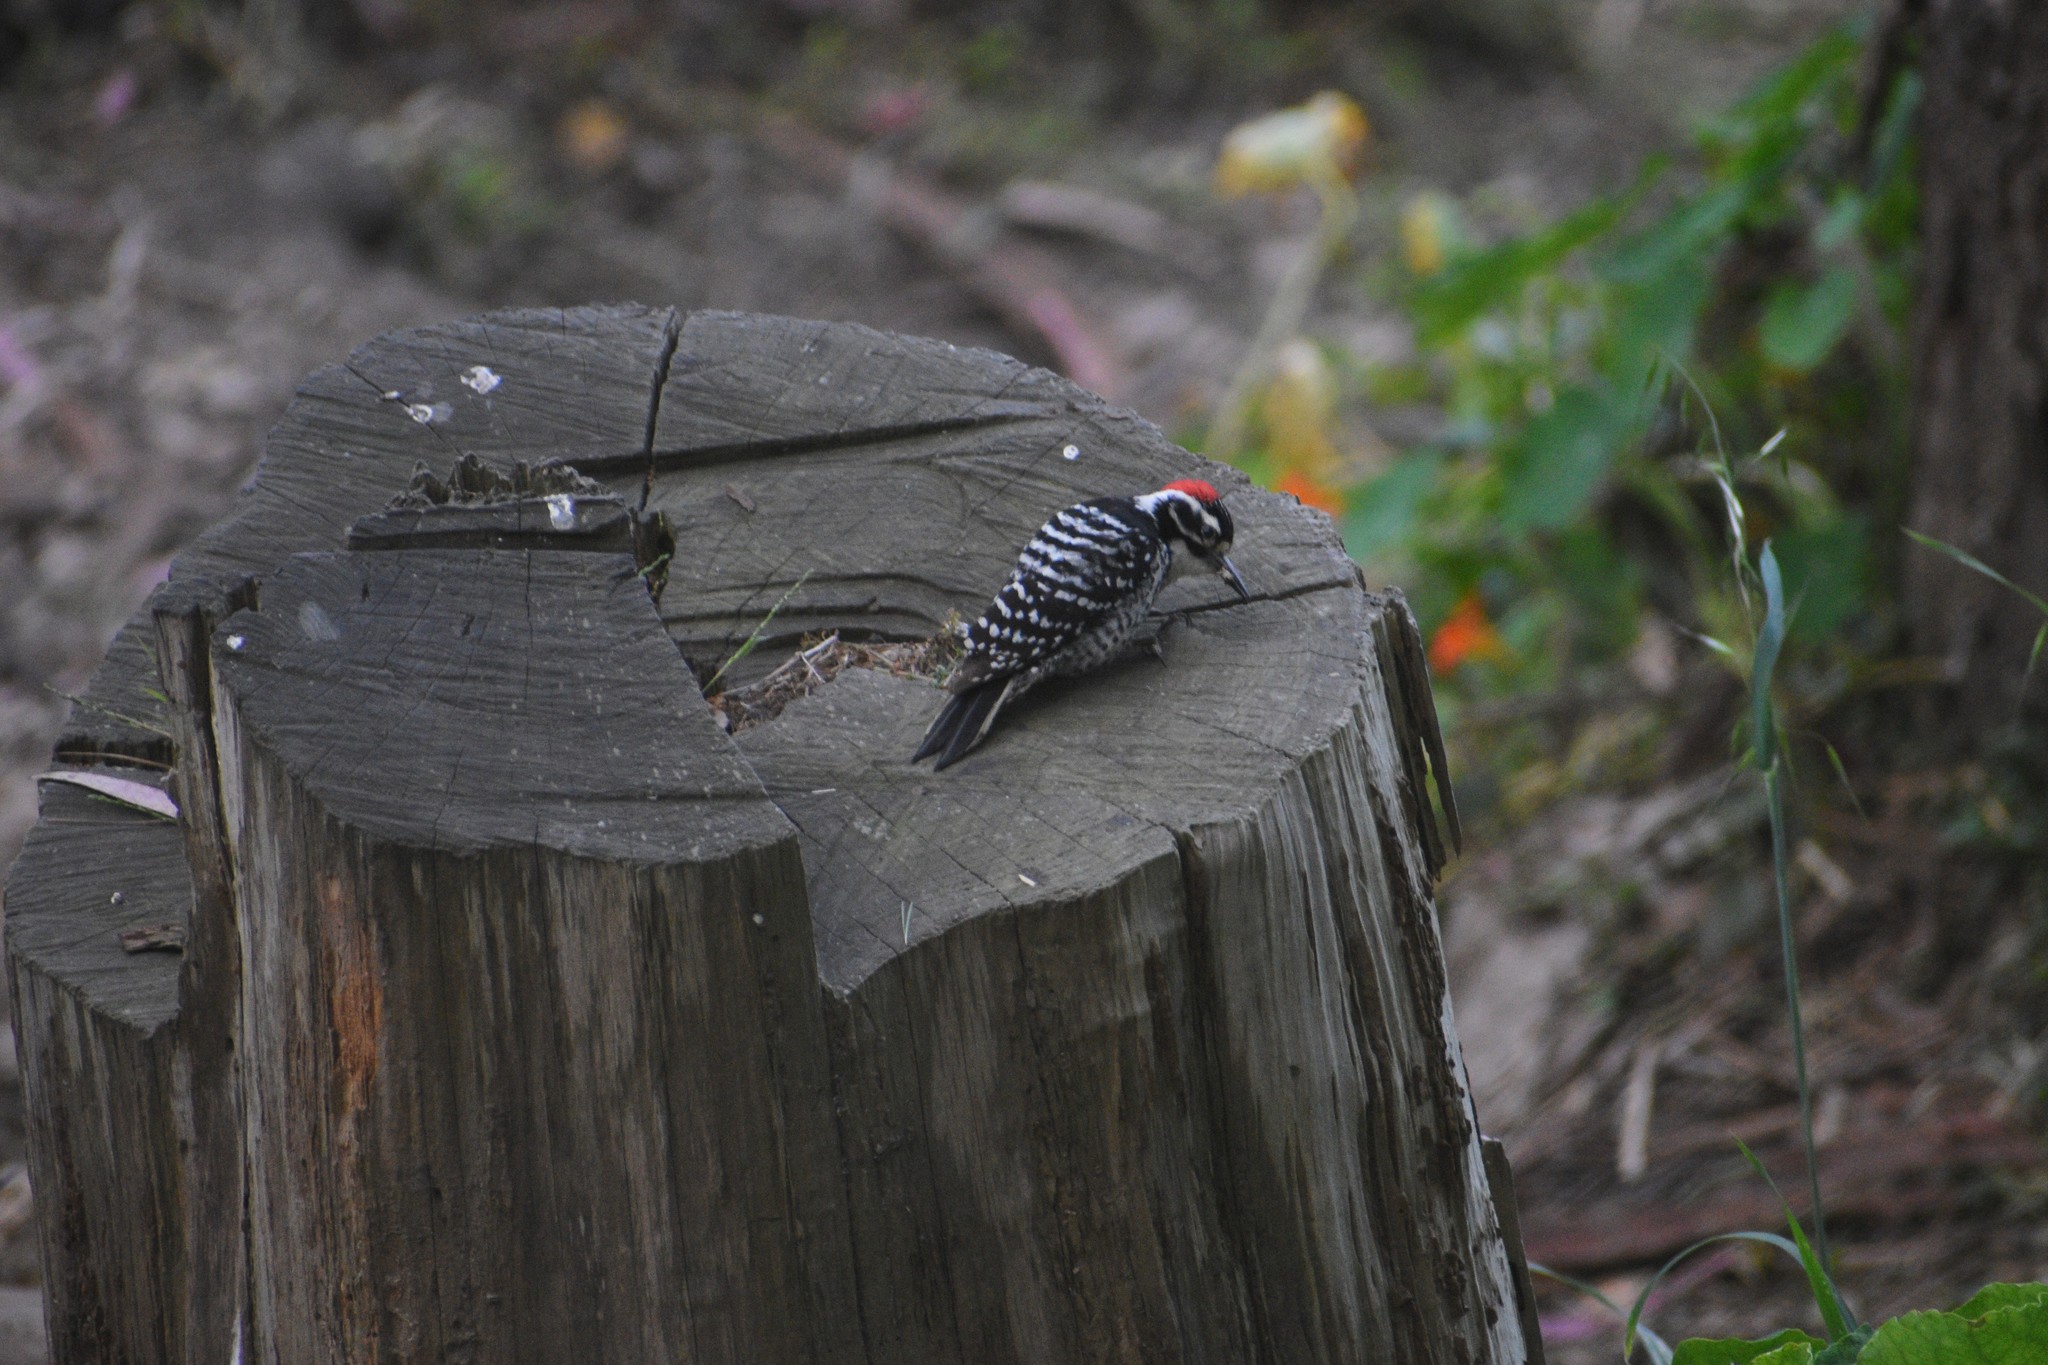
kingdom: Animalia
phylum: Chordata
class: Aves
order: Piciformes
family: Picidae
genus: Dryobates
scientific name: Dryobates nuttallii
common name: Nuttall's woodpecker
